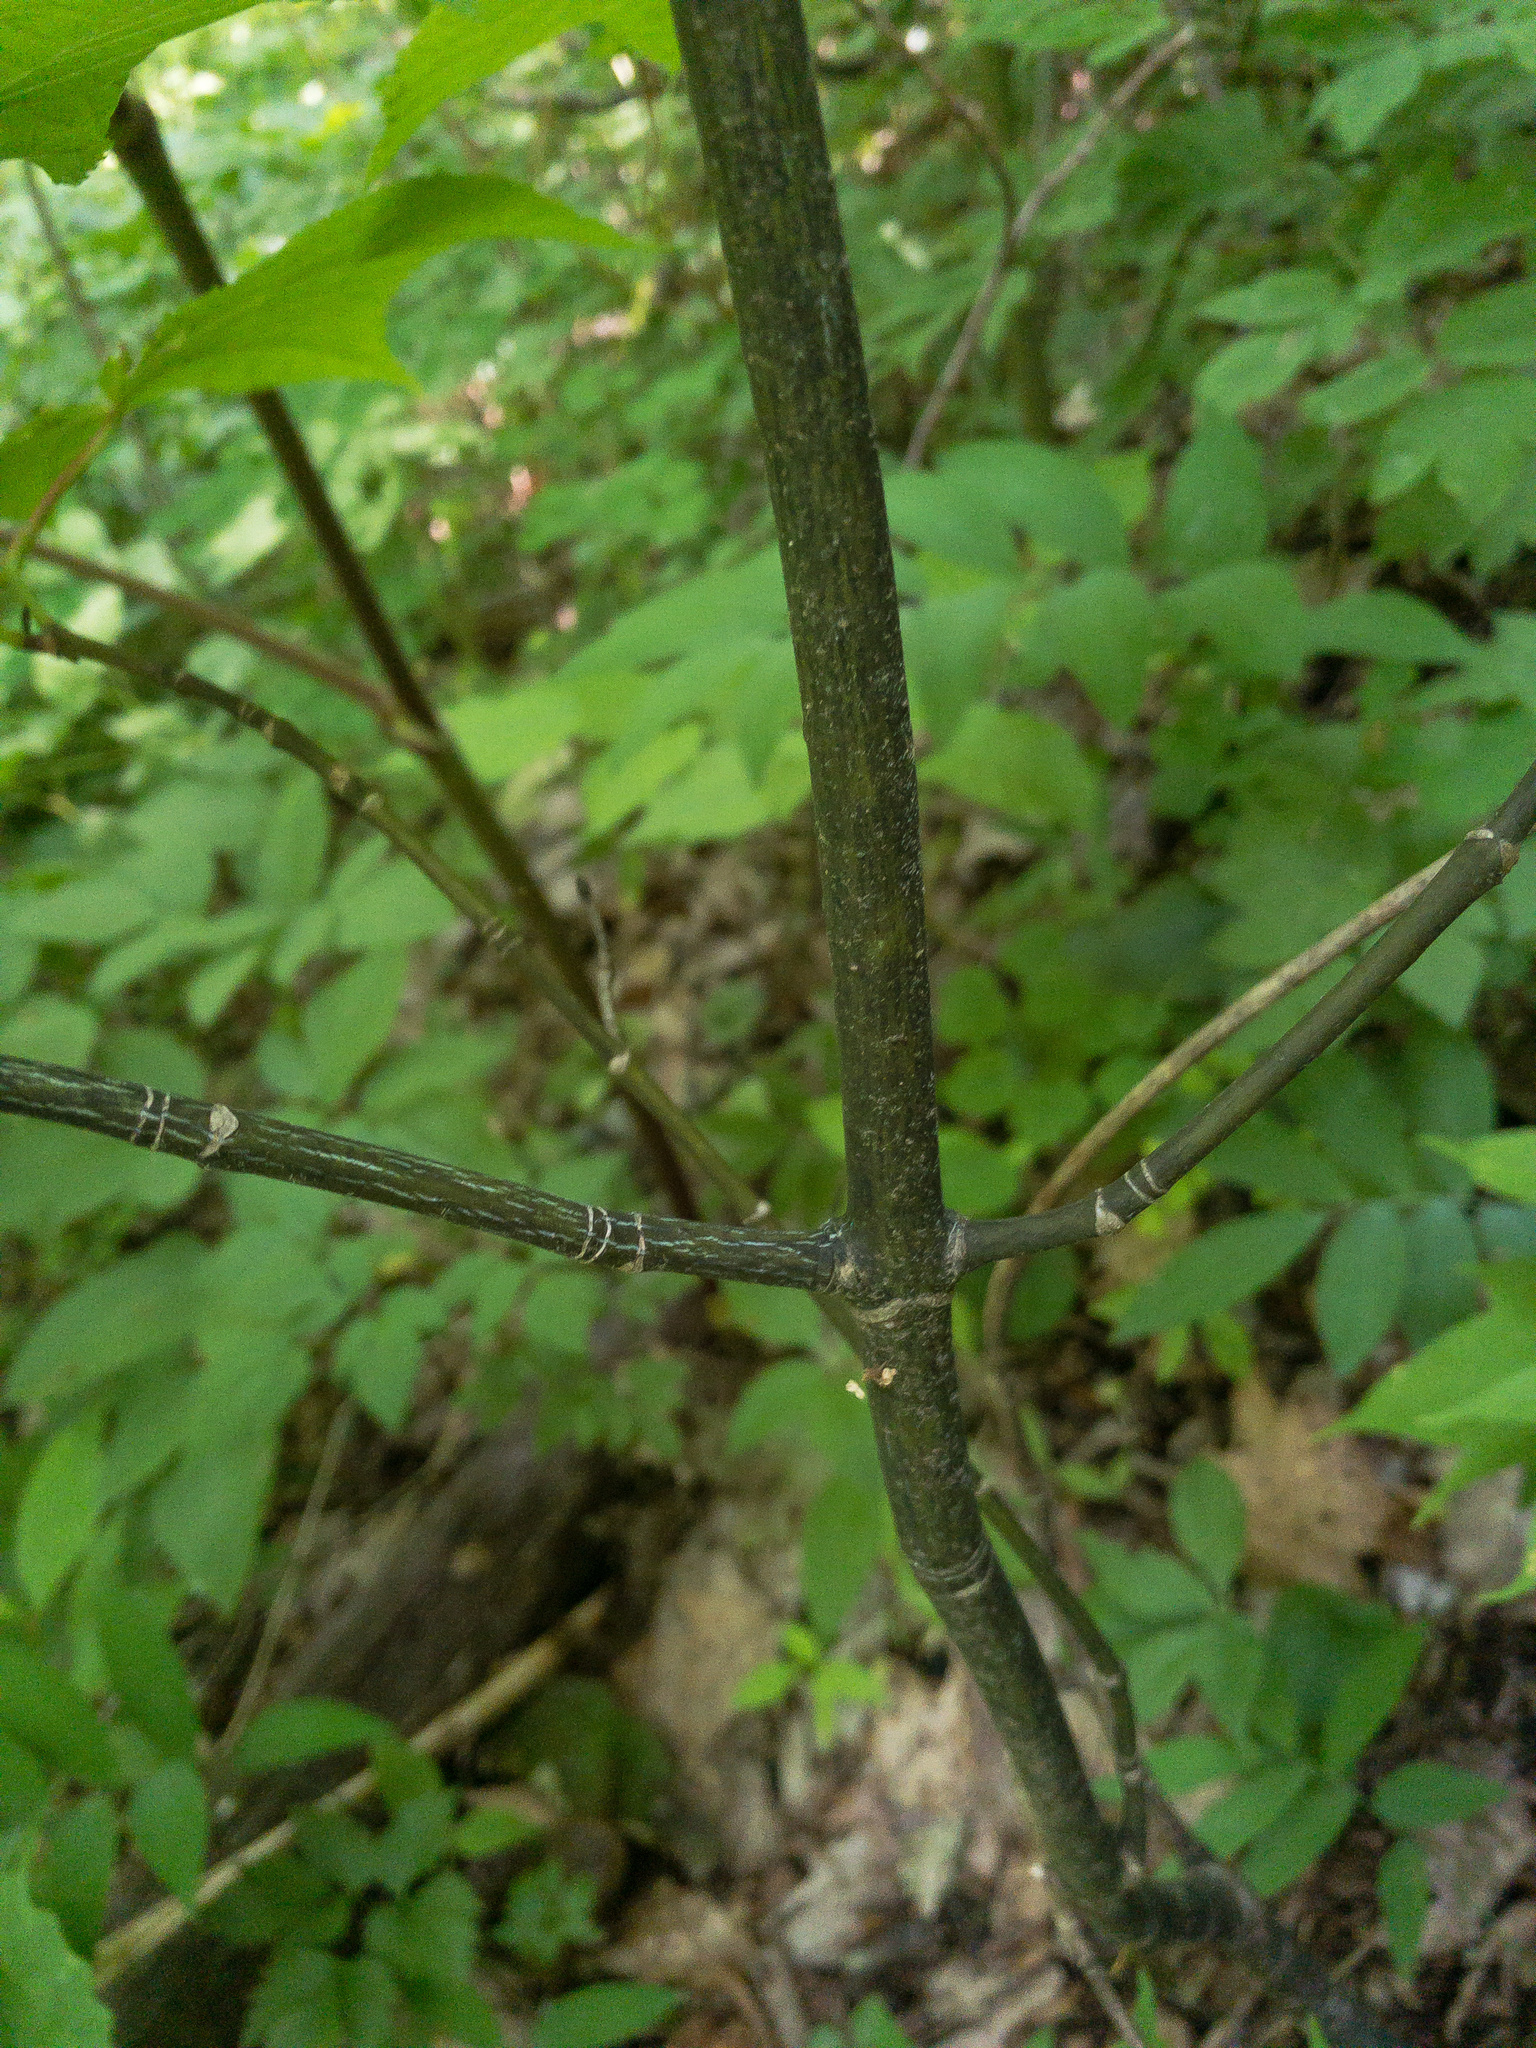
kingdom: Plantae
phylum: Tracheophyta
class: Magnoliopsida
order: Sapindales
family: Sapindaceae
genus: Acer
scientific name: Acer pensylvanicum
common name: Moosewood
